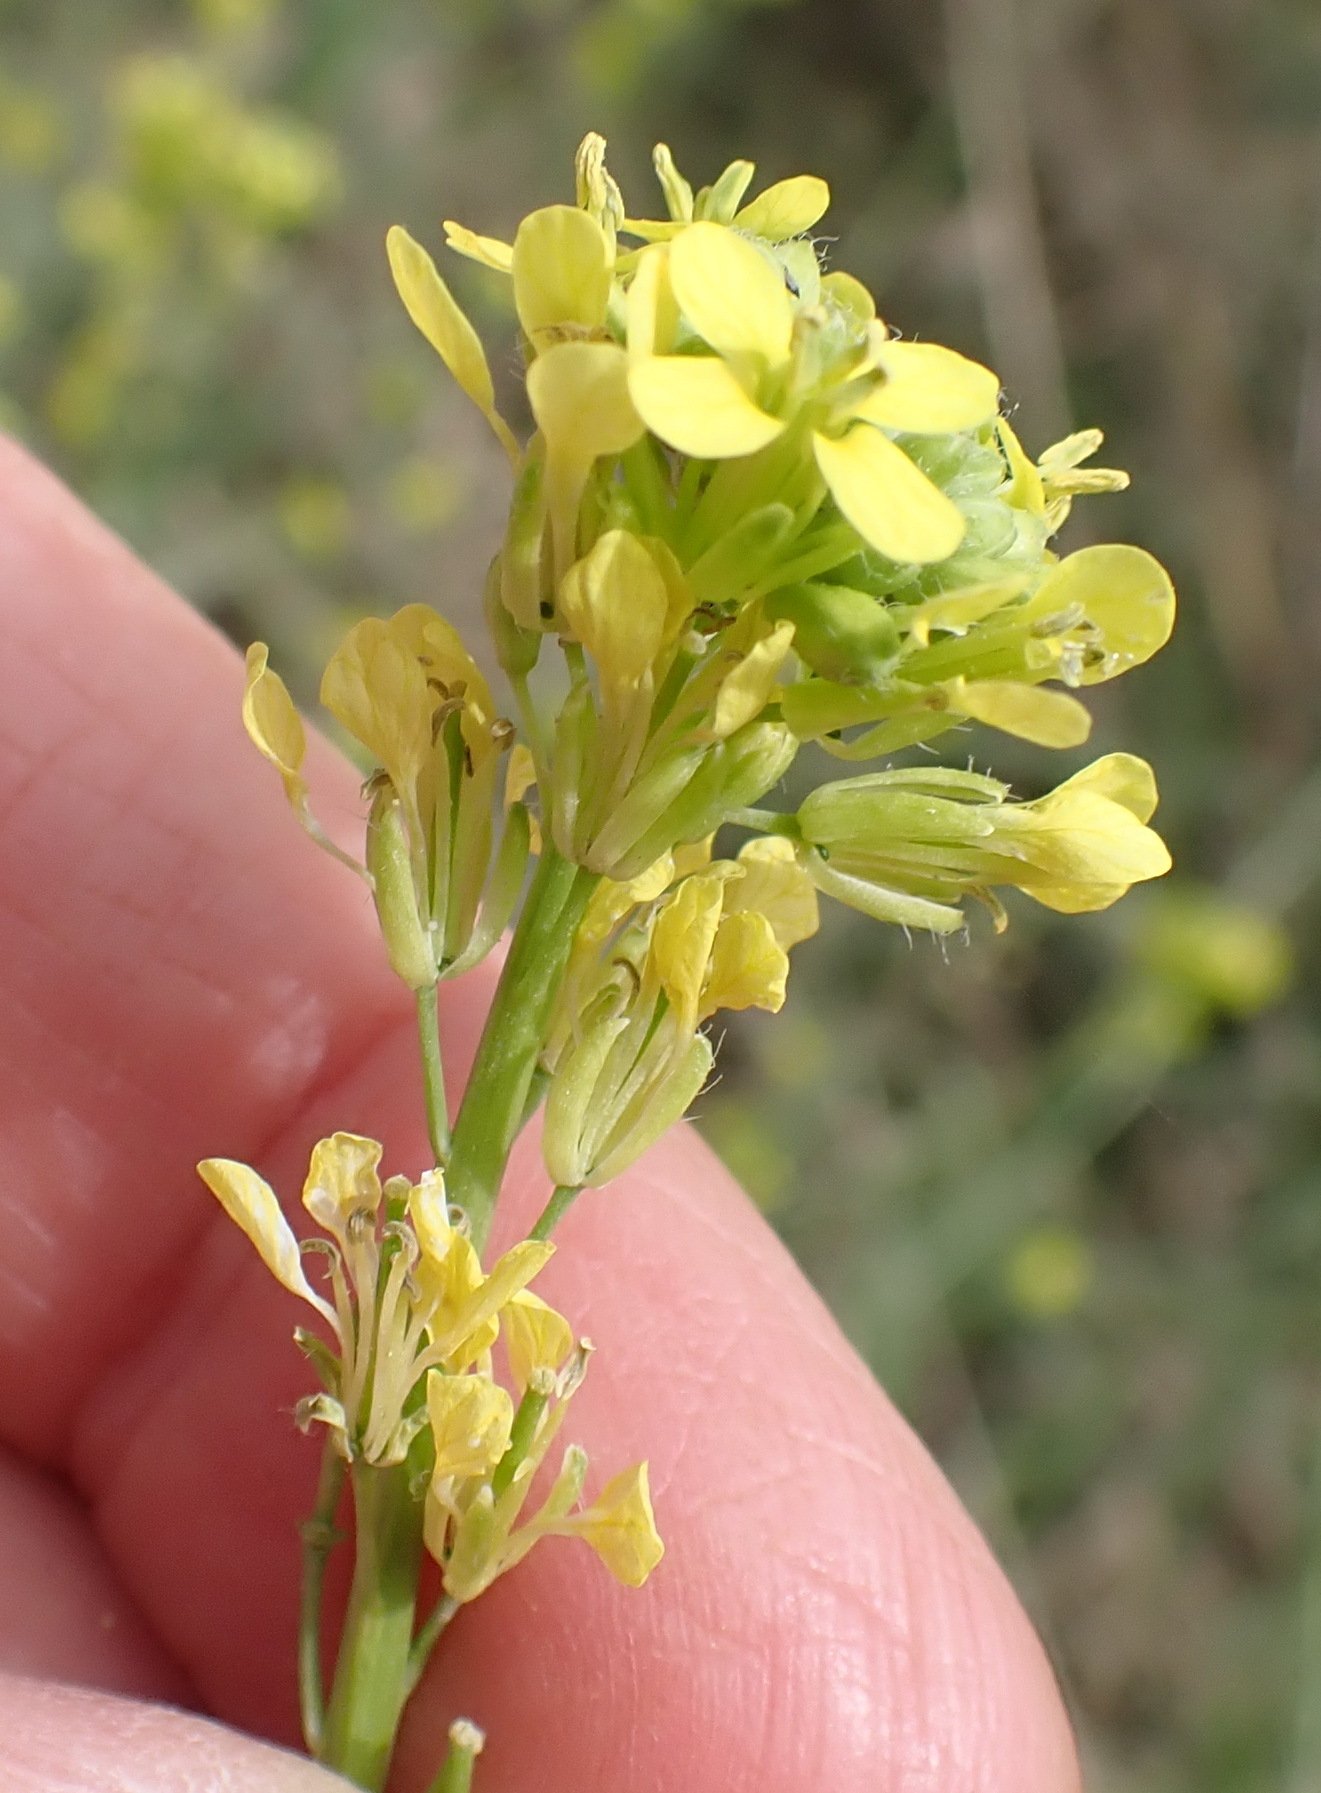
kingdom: Plantae
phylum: Tracheophyta
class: Magnoliopsida
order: Brassicales
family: Brassicaceae
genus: Raphanus
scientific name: Raphanus raphanistrum
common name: Wild radish
